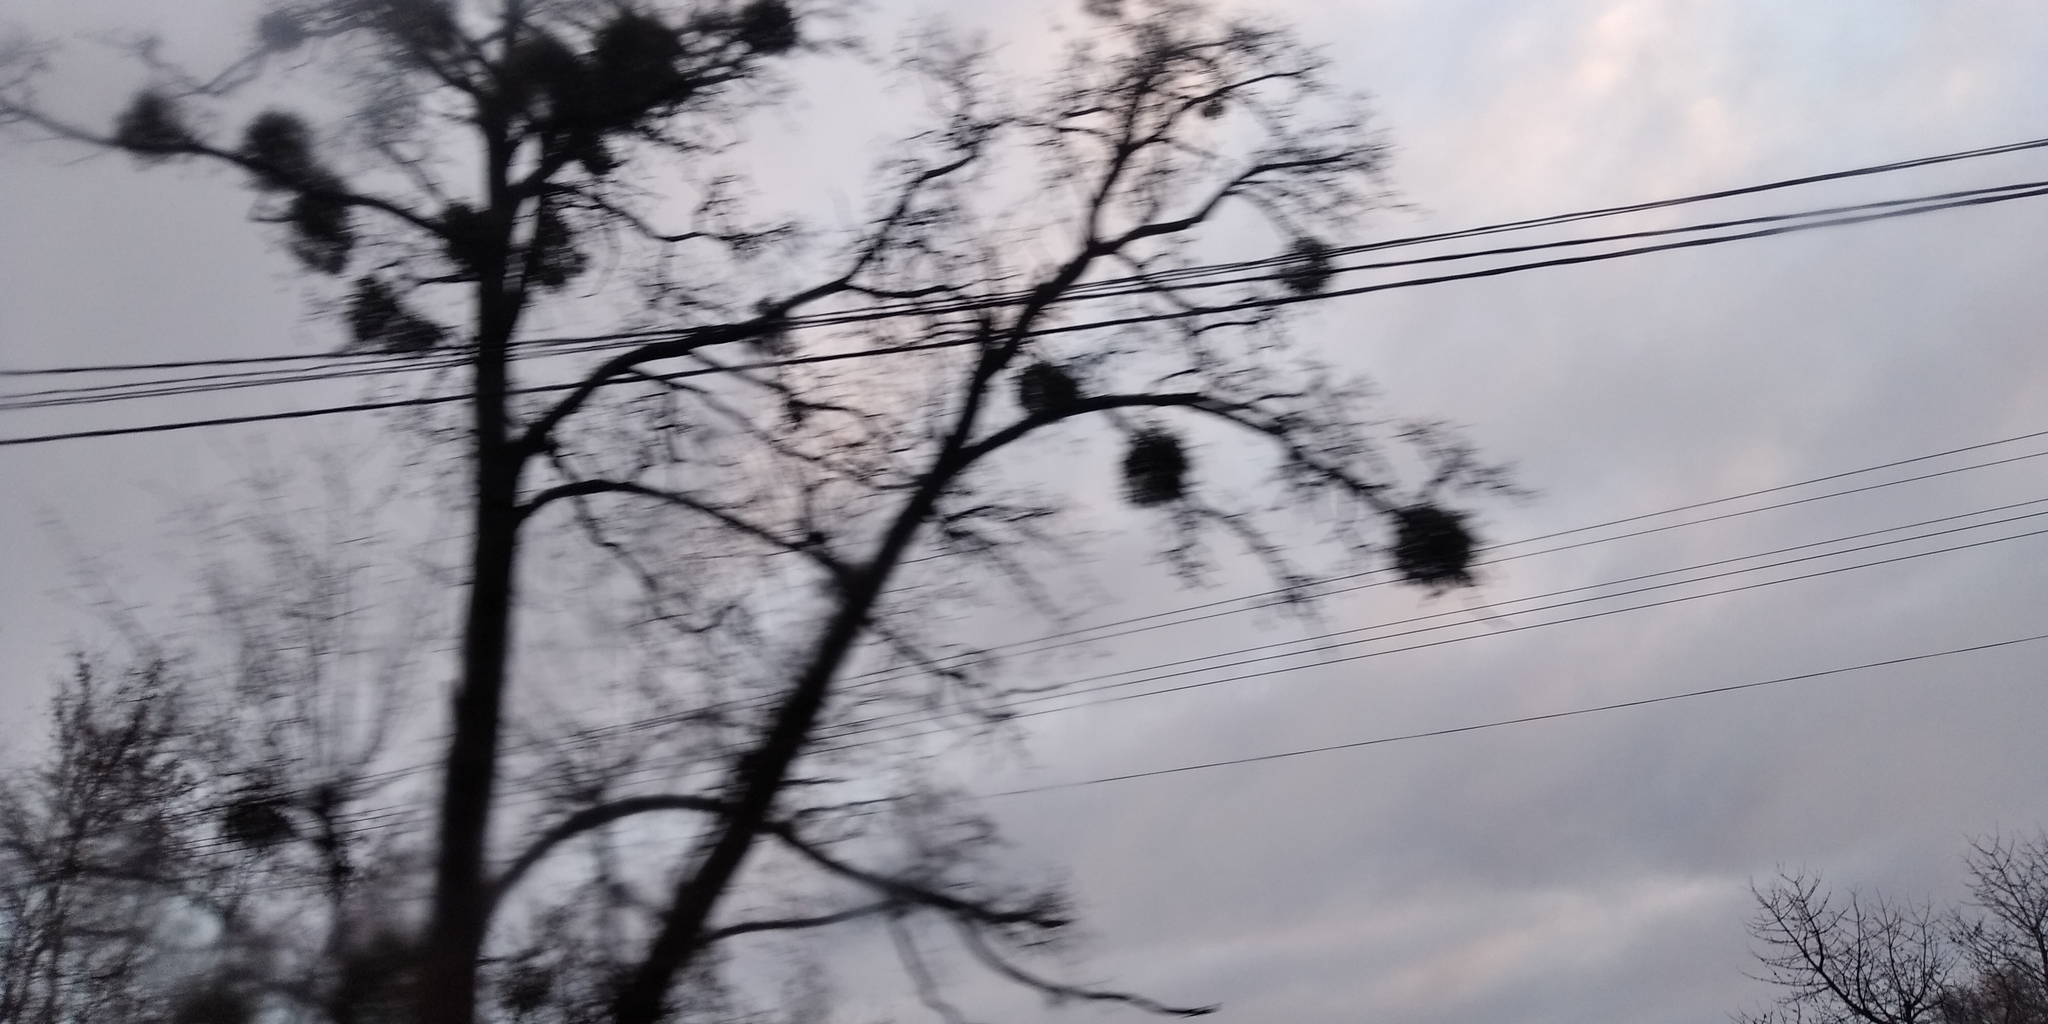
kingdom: Plantae
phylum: Tracheophyta
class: Magnoliopsida
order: Santalales
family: Viscaceae
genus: Viscum
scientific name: Viscum album
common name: Mistletoe
